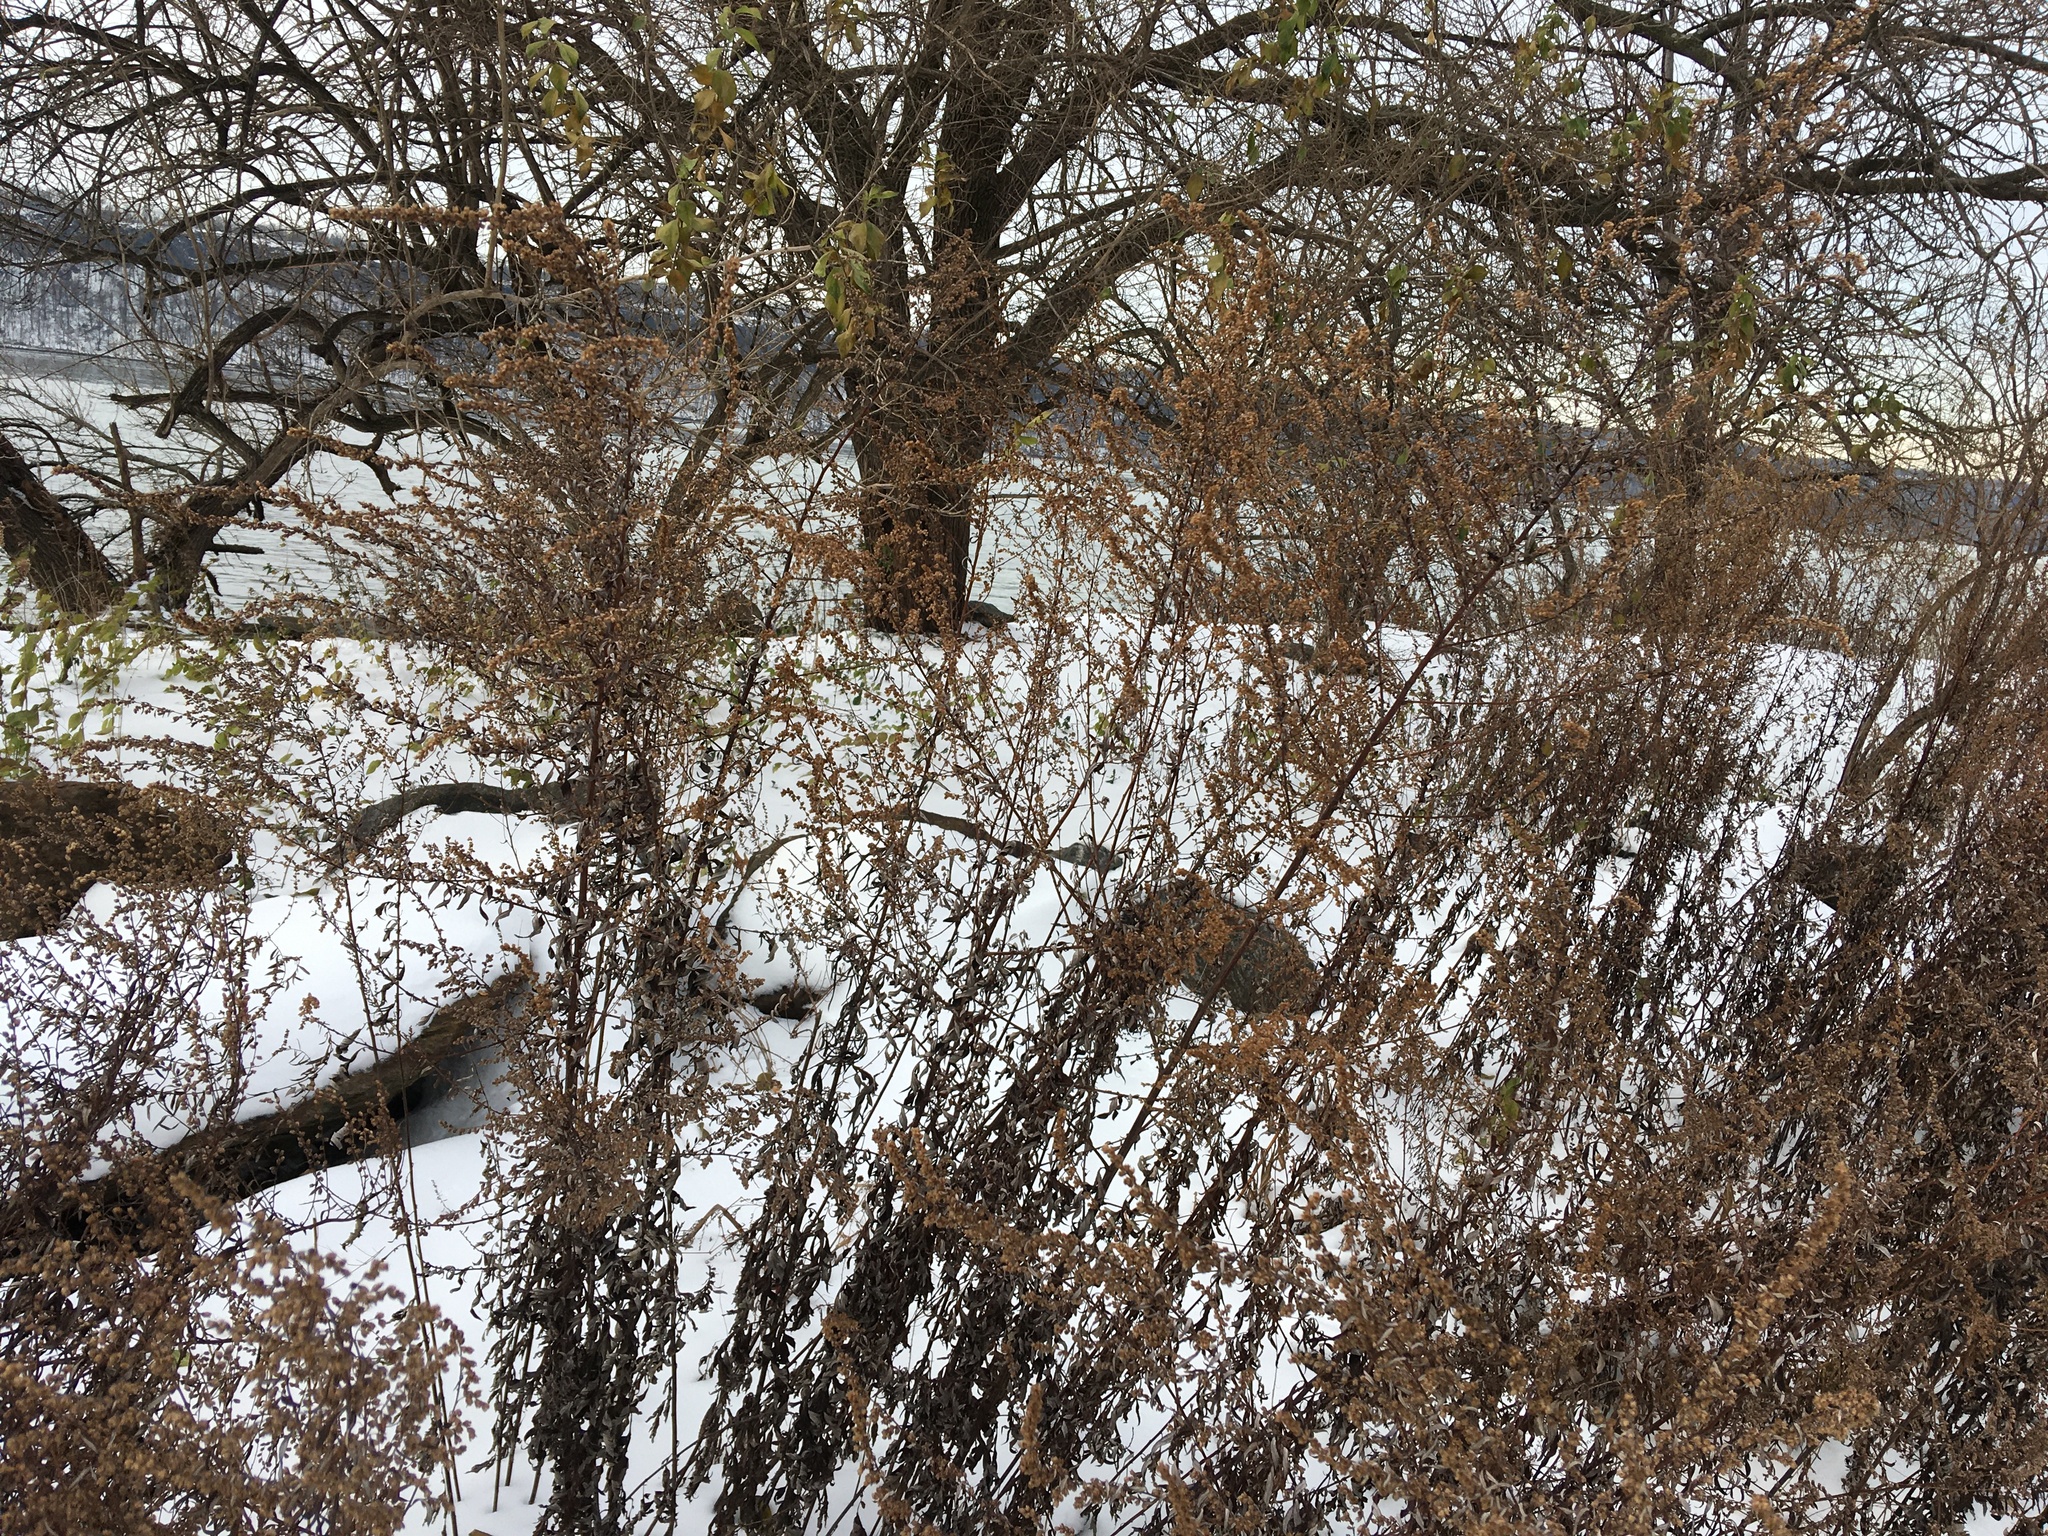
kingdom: Plantae
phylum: Tracheophyta
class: Magnoliopsida
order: Asterales
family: Asteraceae
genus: Artemisia
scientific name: Artemisia vulgaris
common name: Mugwort
